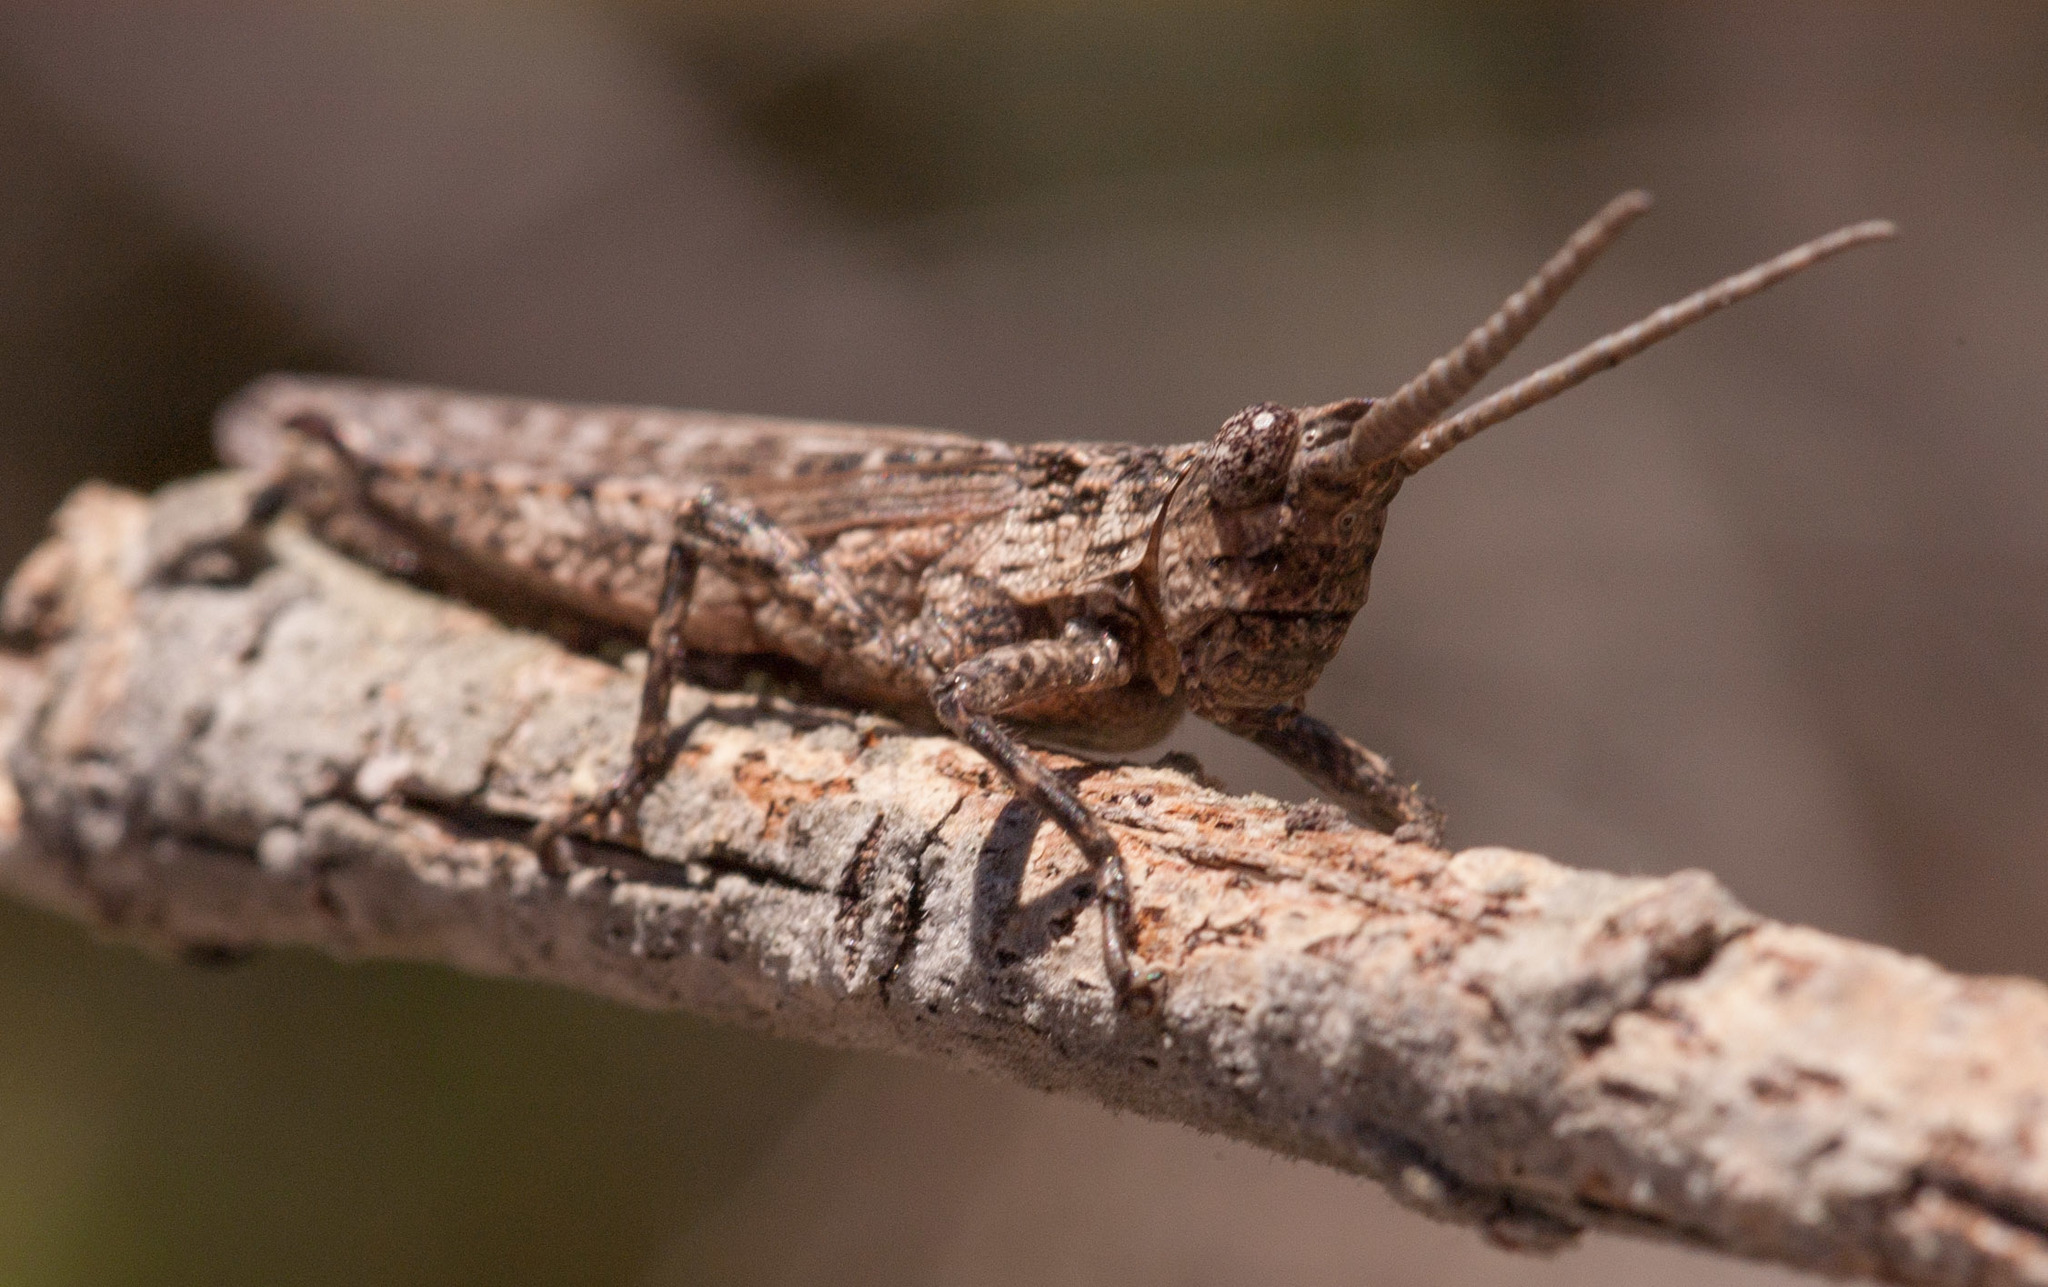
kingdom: Animalia
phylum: Arthropoda
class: Insecta
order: Orthoptera
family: Acrididae
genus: Coryphistes
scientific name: Coryphistes ruricola
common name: Bark-mimicking grasshopper
